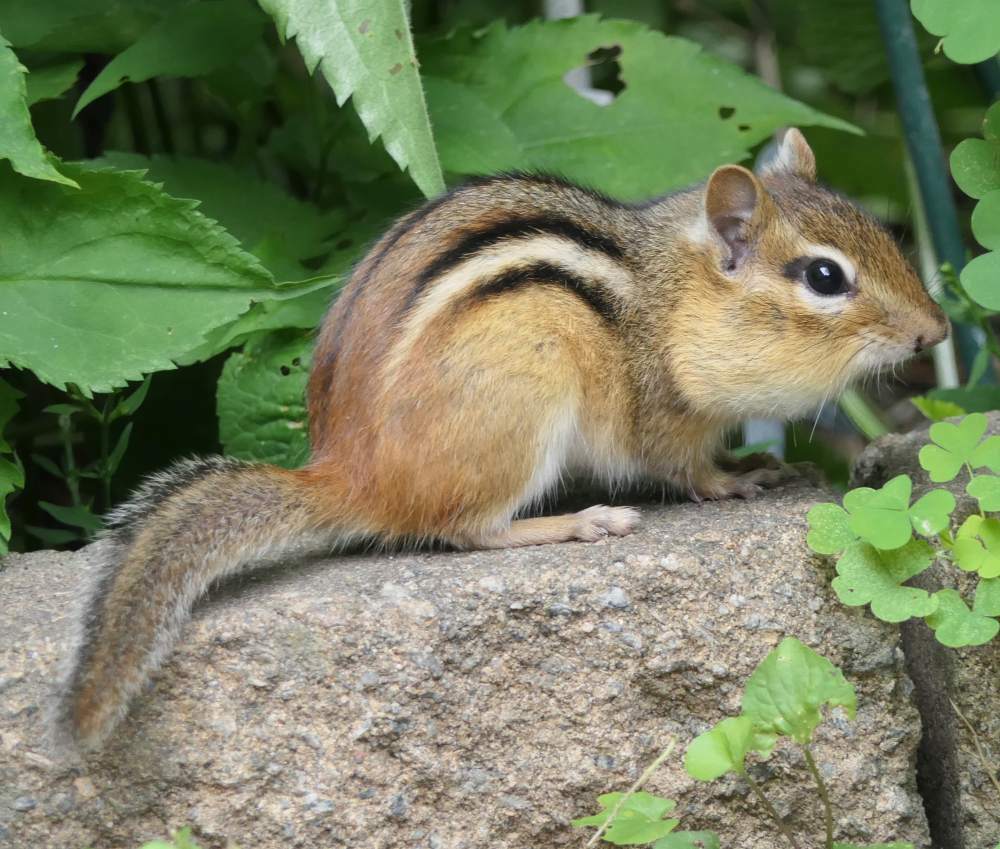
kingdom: Animalia
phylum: Chordata
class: Mammalia
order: Rodentia
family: Sciuridae
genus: Tamias
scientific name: Tamias striatus
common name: Eastern chipmunk
